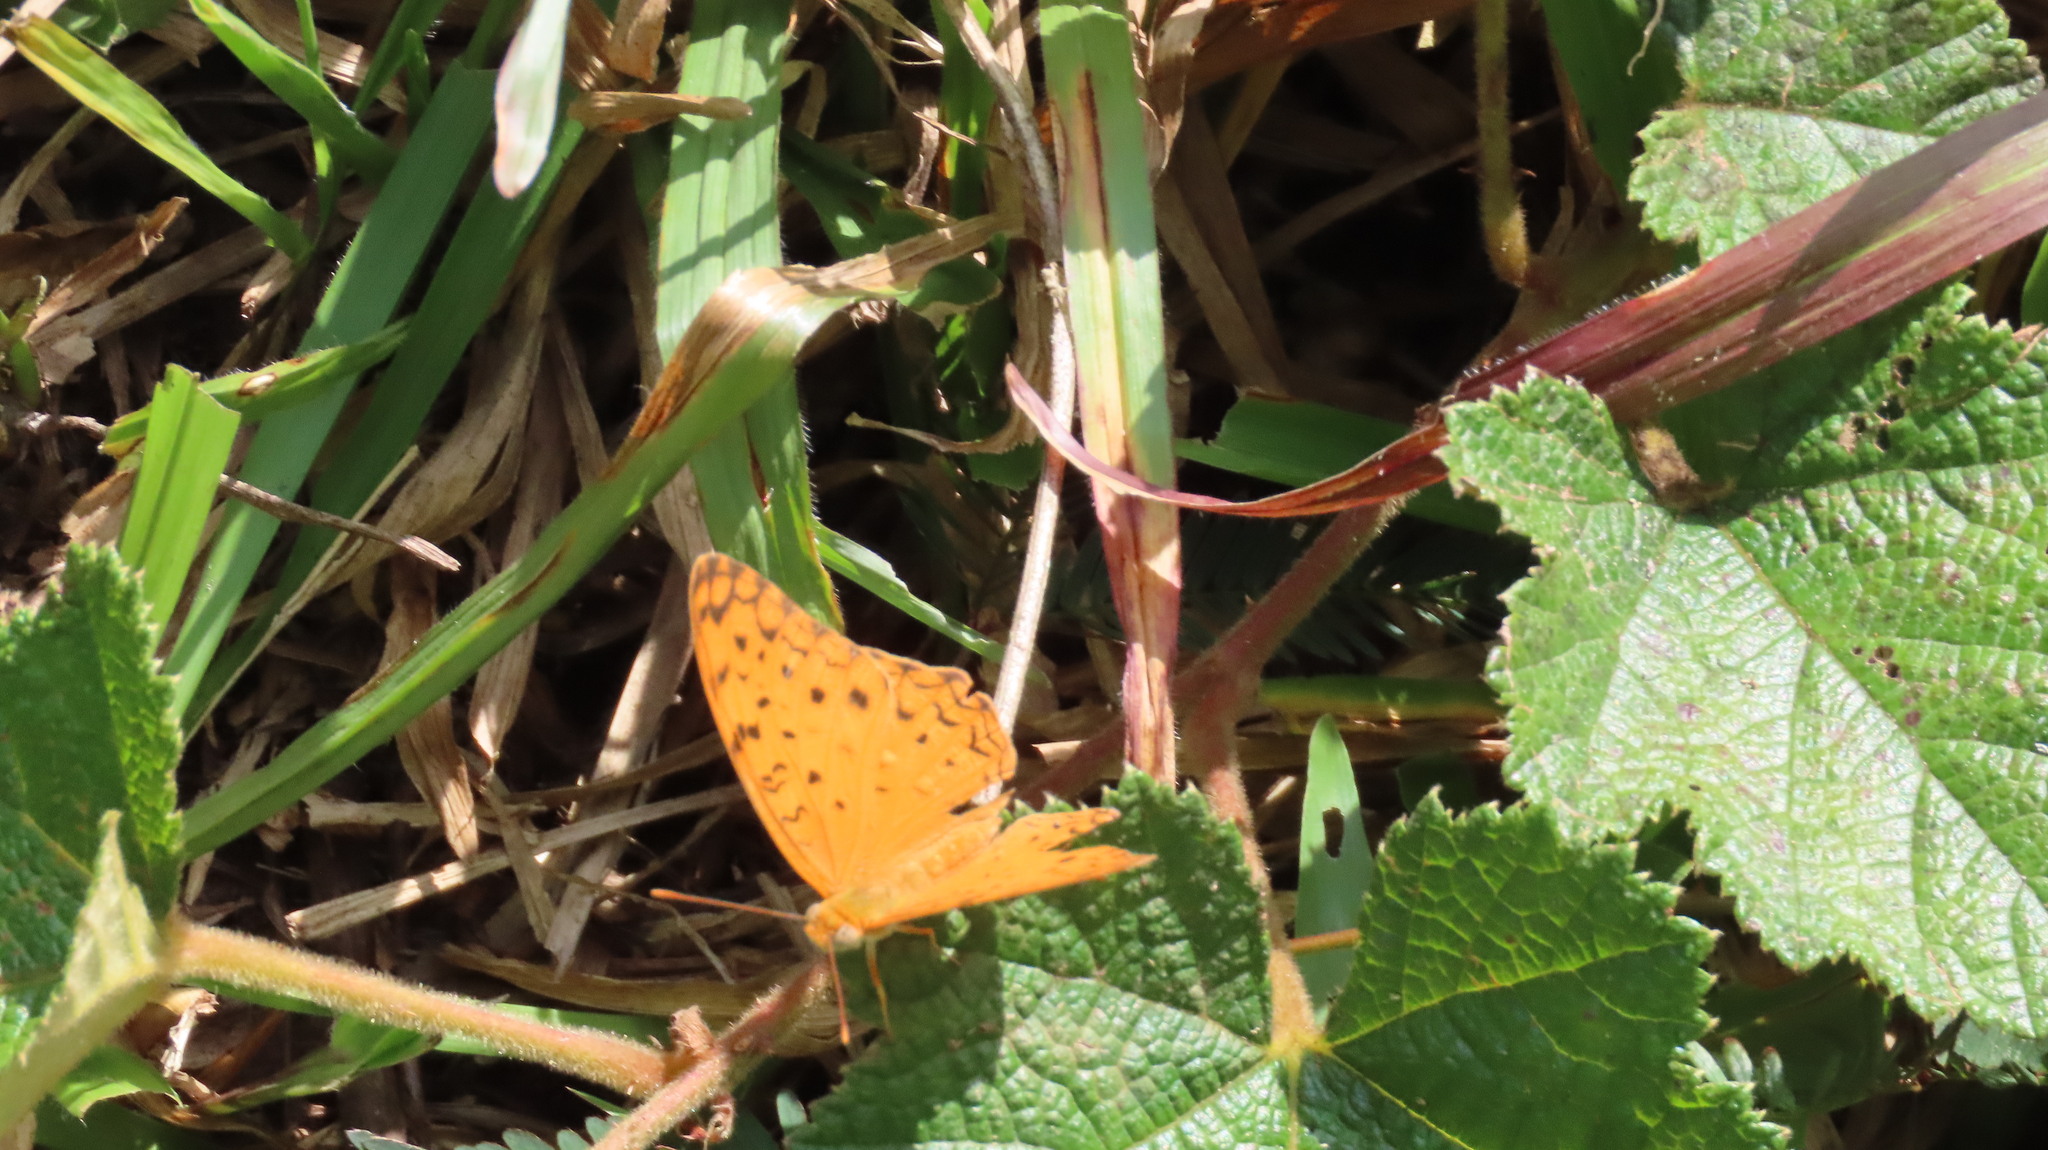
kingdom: Animalia
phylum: Arthropoda
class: Insecta
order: Lepidoptera
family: Nymphalidae
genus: Phalanta
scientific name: Phalanta phalantha
